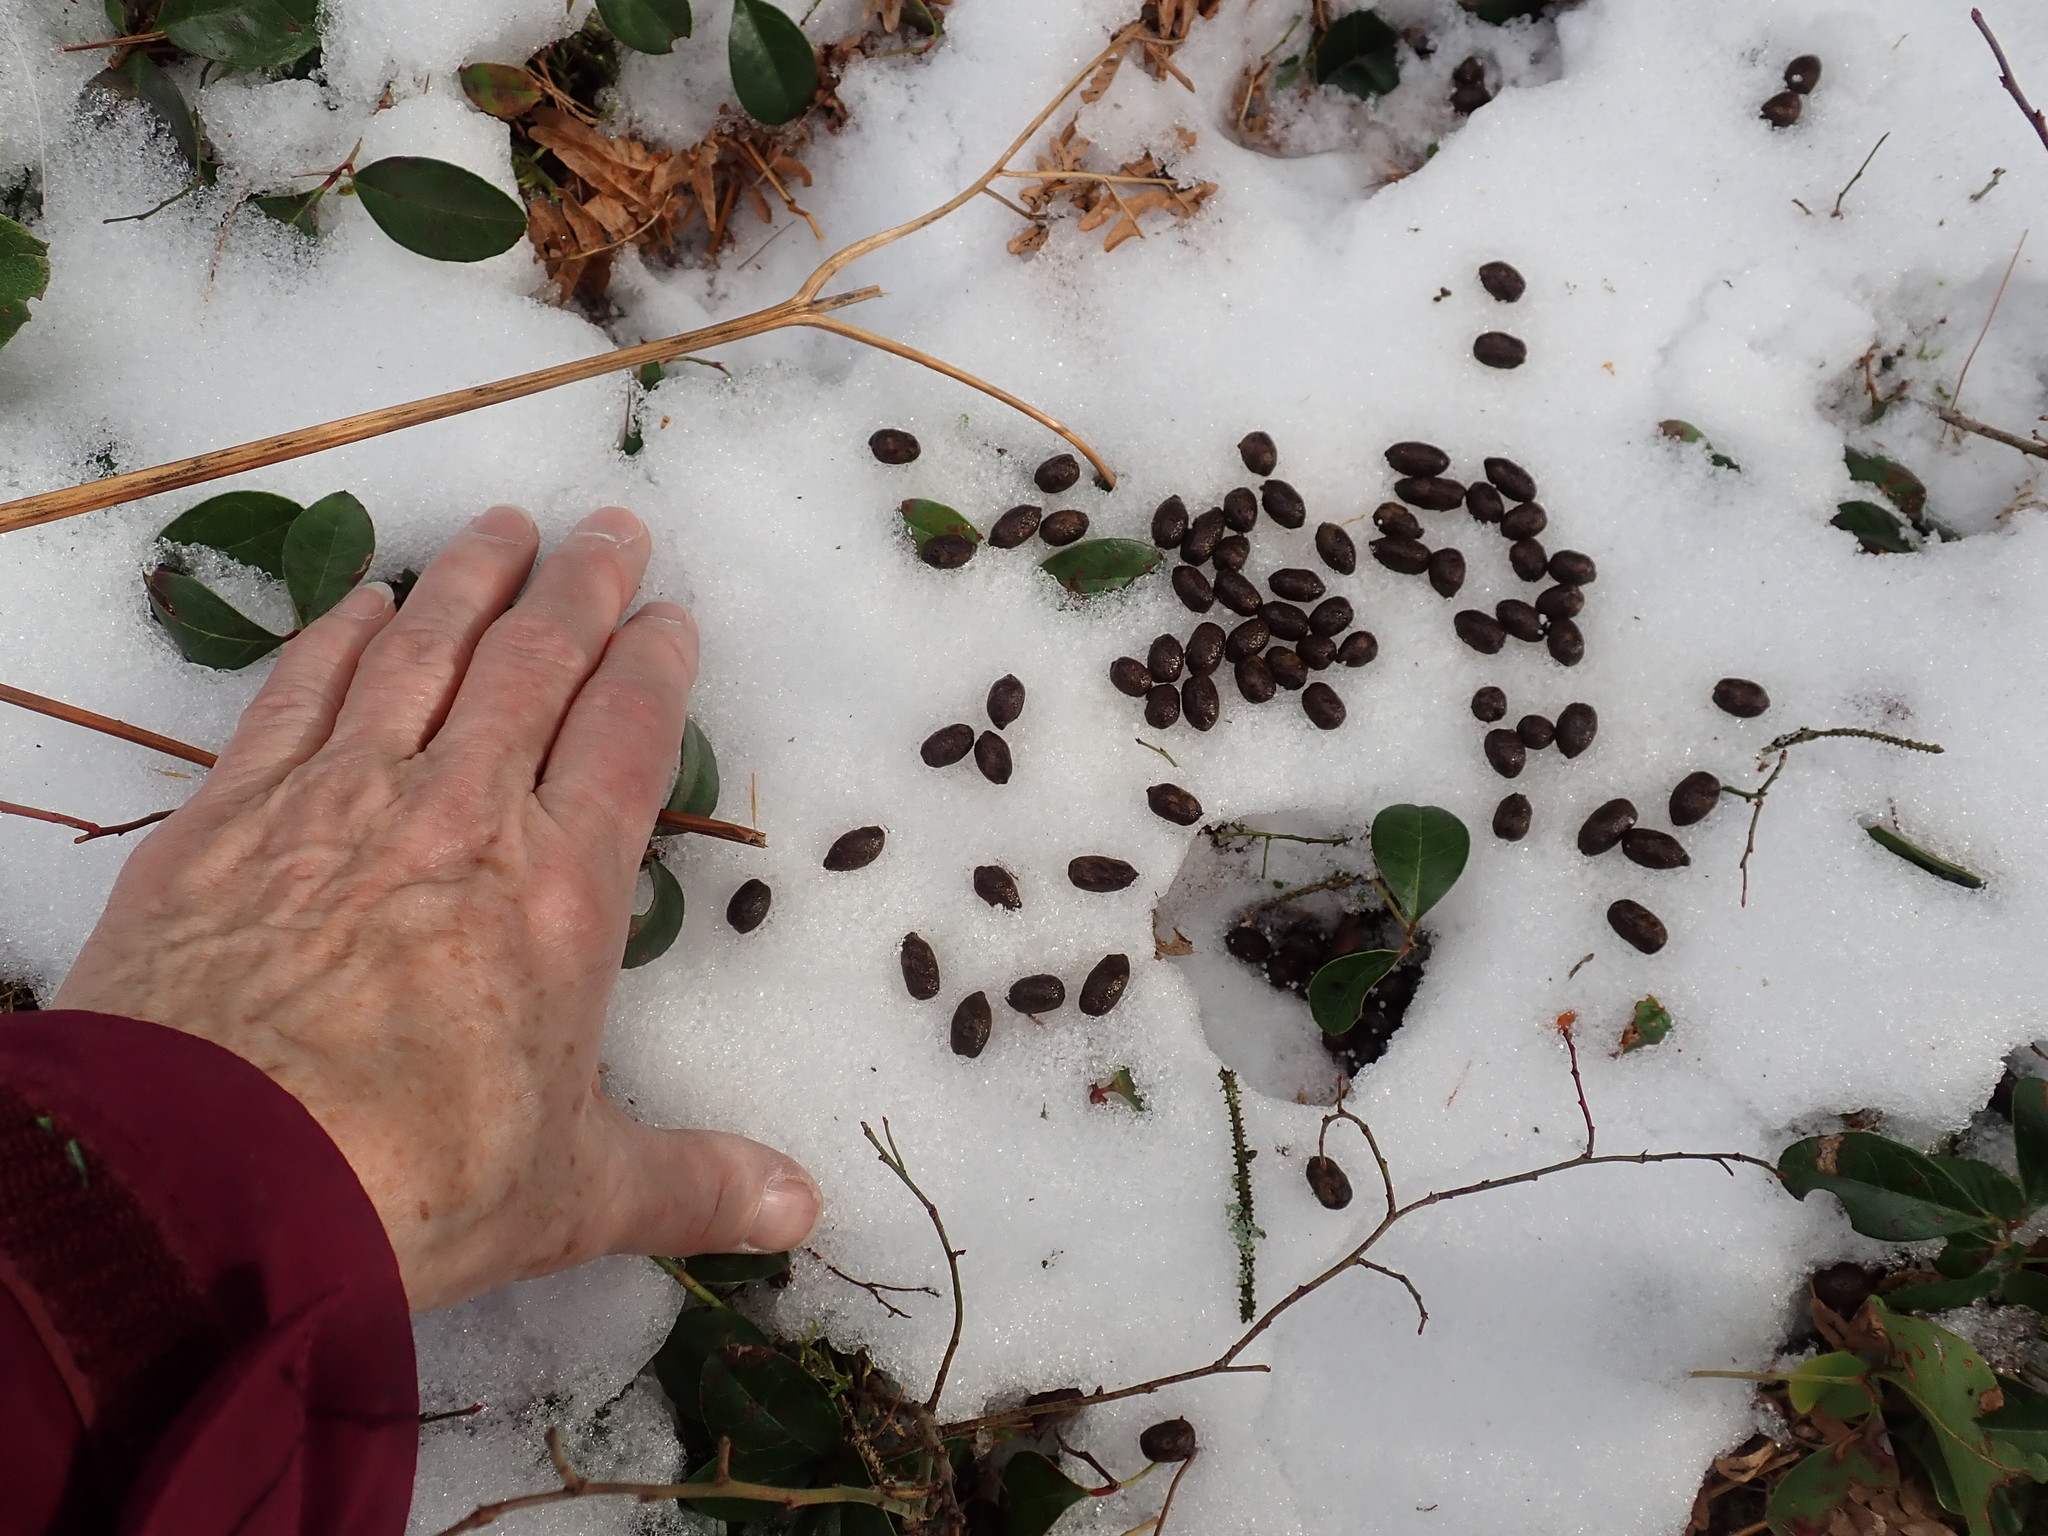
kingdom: Animalia
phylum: Chordata
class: Mammalia
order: Artiodactyla
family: Cervidae
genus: Odocoileus
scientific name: Odocoileus virginianus
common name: White-tailed deer
